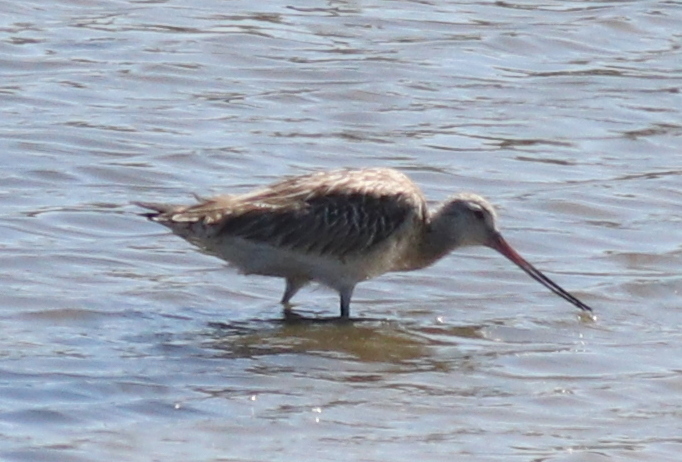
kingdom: Animalia
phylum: Chordata
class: Aves
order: Charadriiformes
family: Scolopacidae
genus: Limosa
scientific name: Limosa lapponica
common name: Bar-tailed godwit
